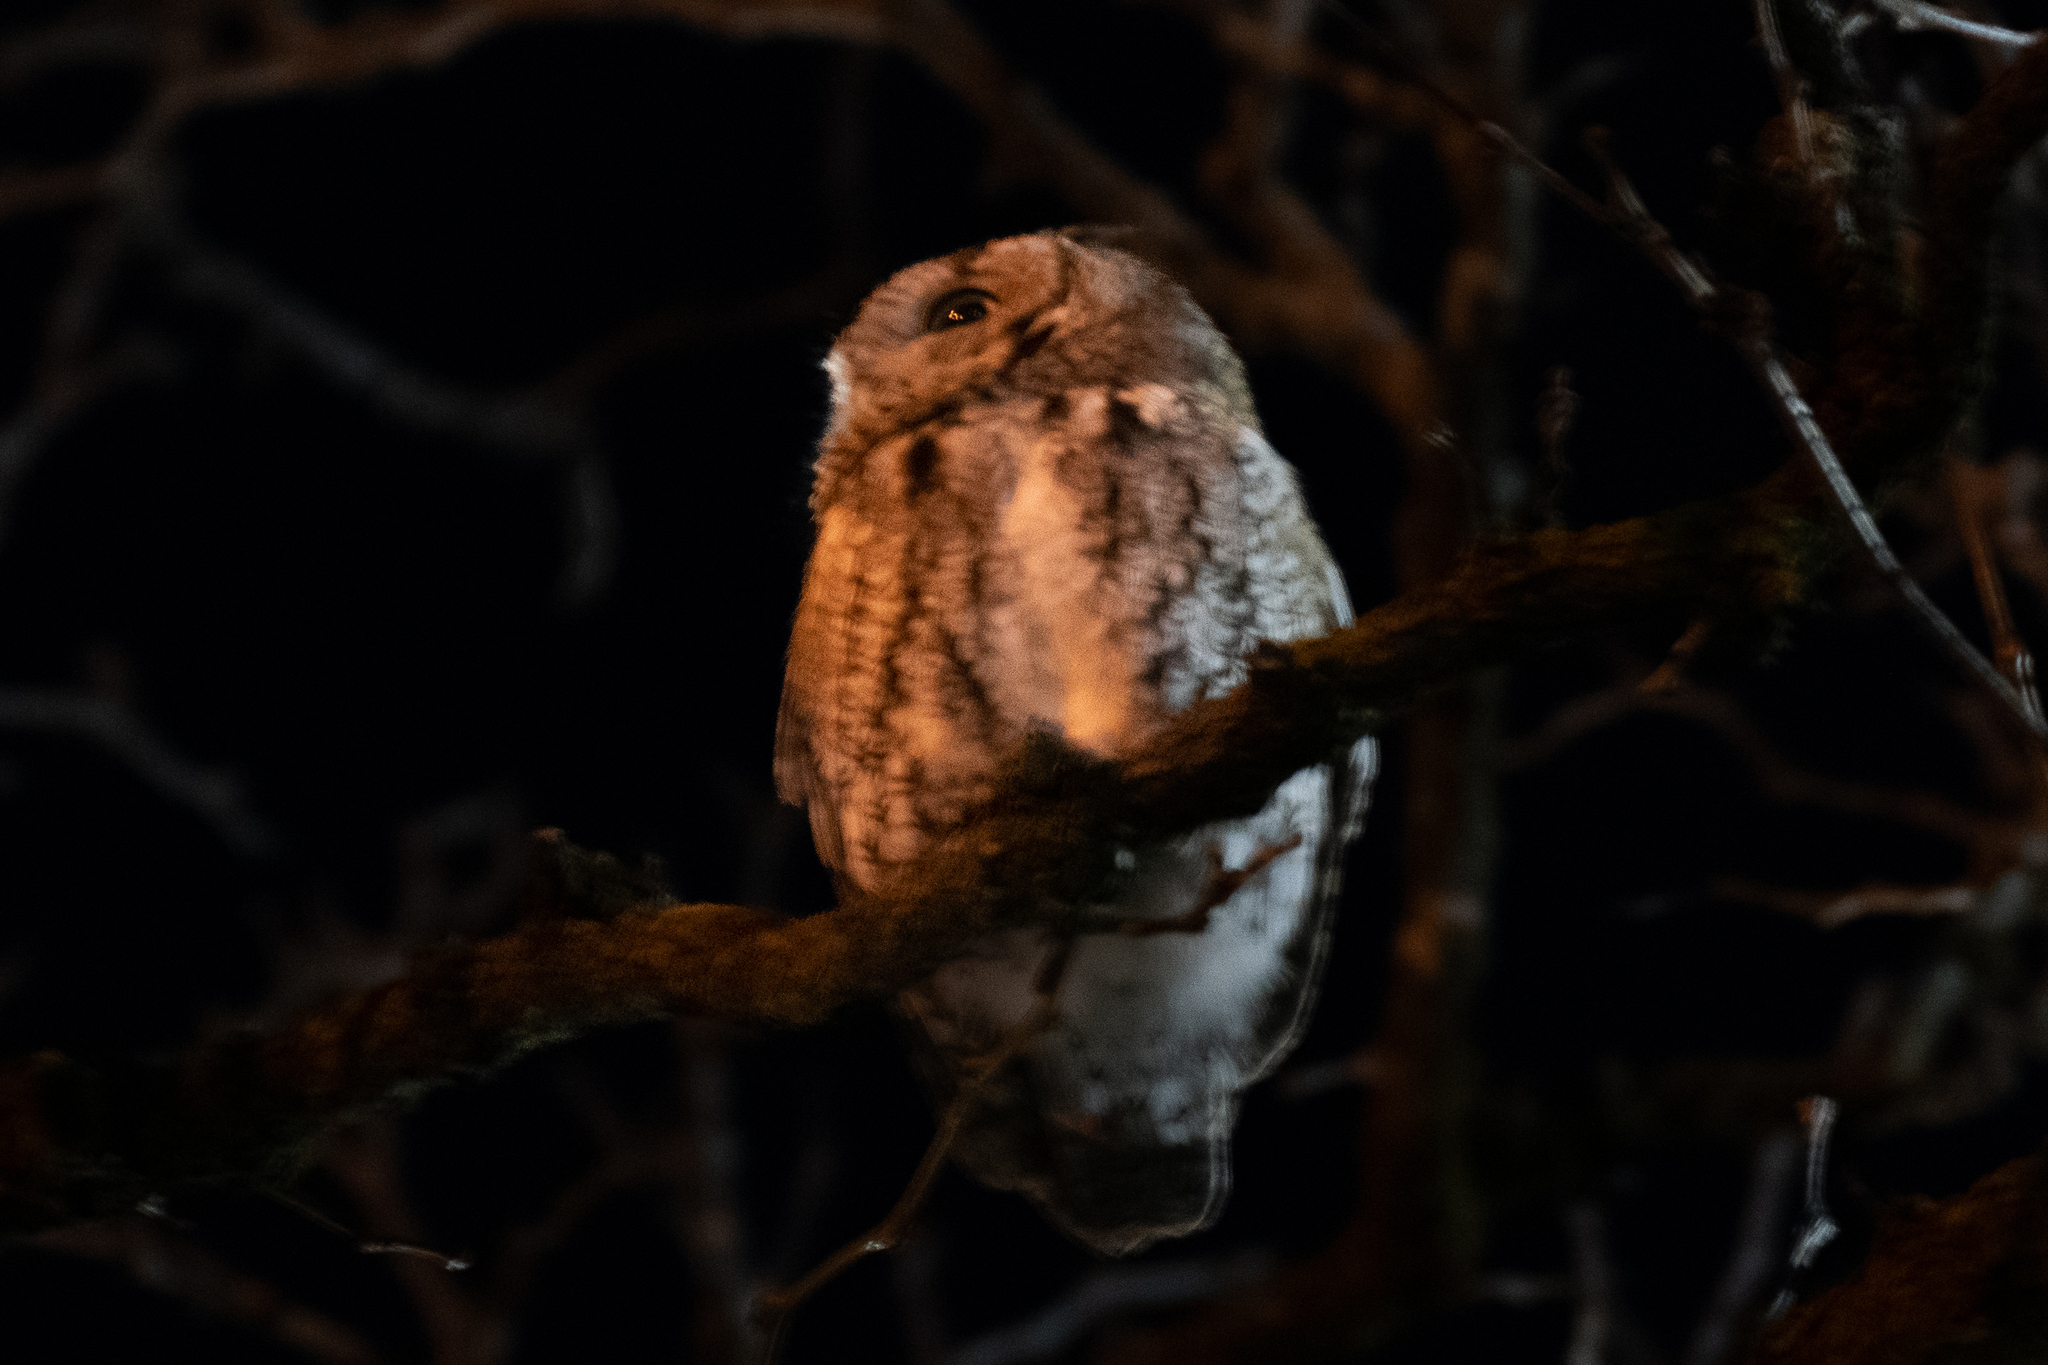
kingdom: Animalia
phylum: Chordata
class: Aves
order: Strigiformes
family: Strigidae
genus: Megascops
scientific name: Megascops asio
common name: Eastern screech-owl
